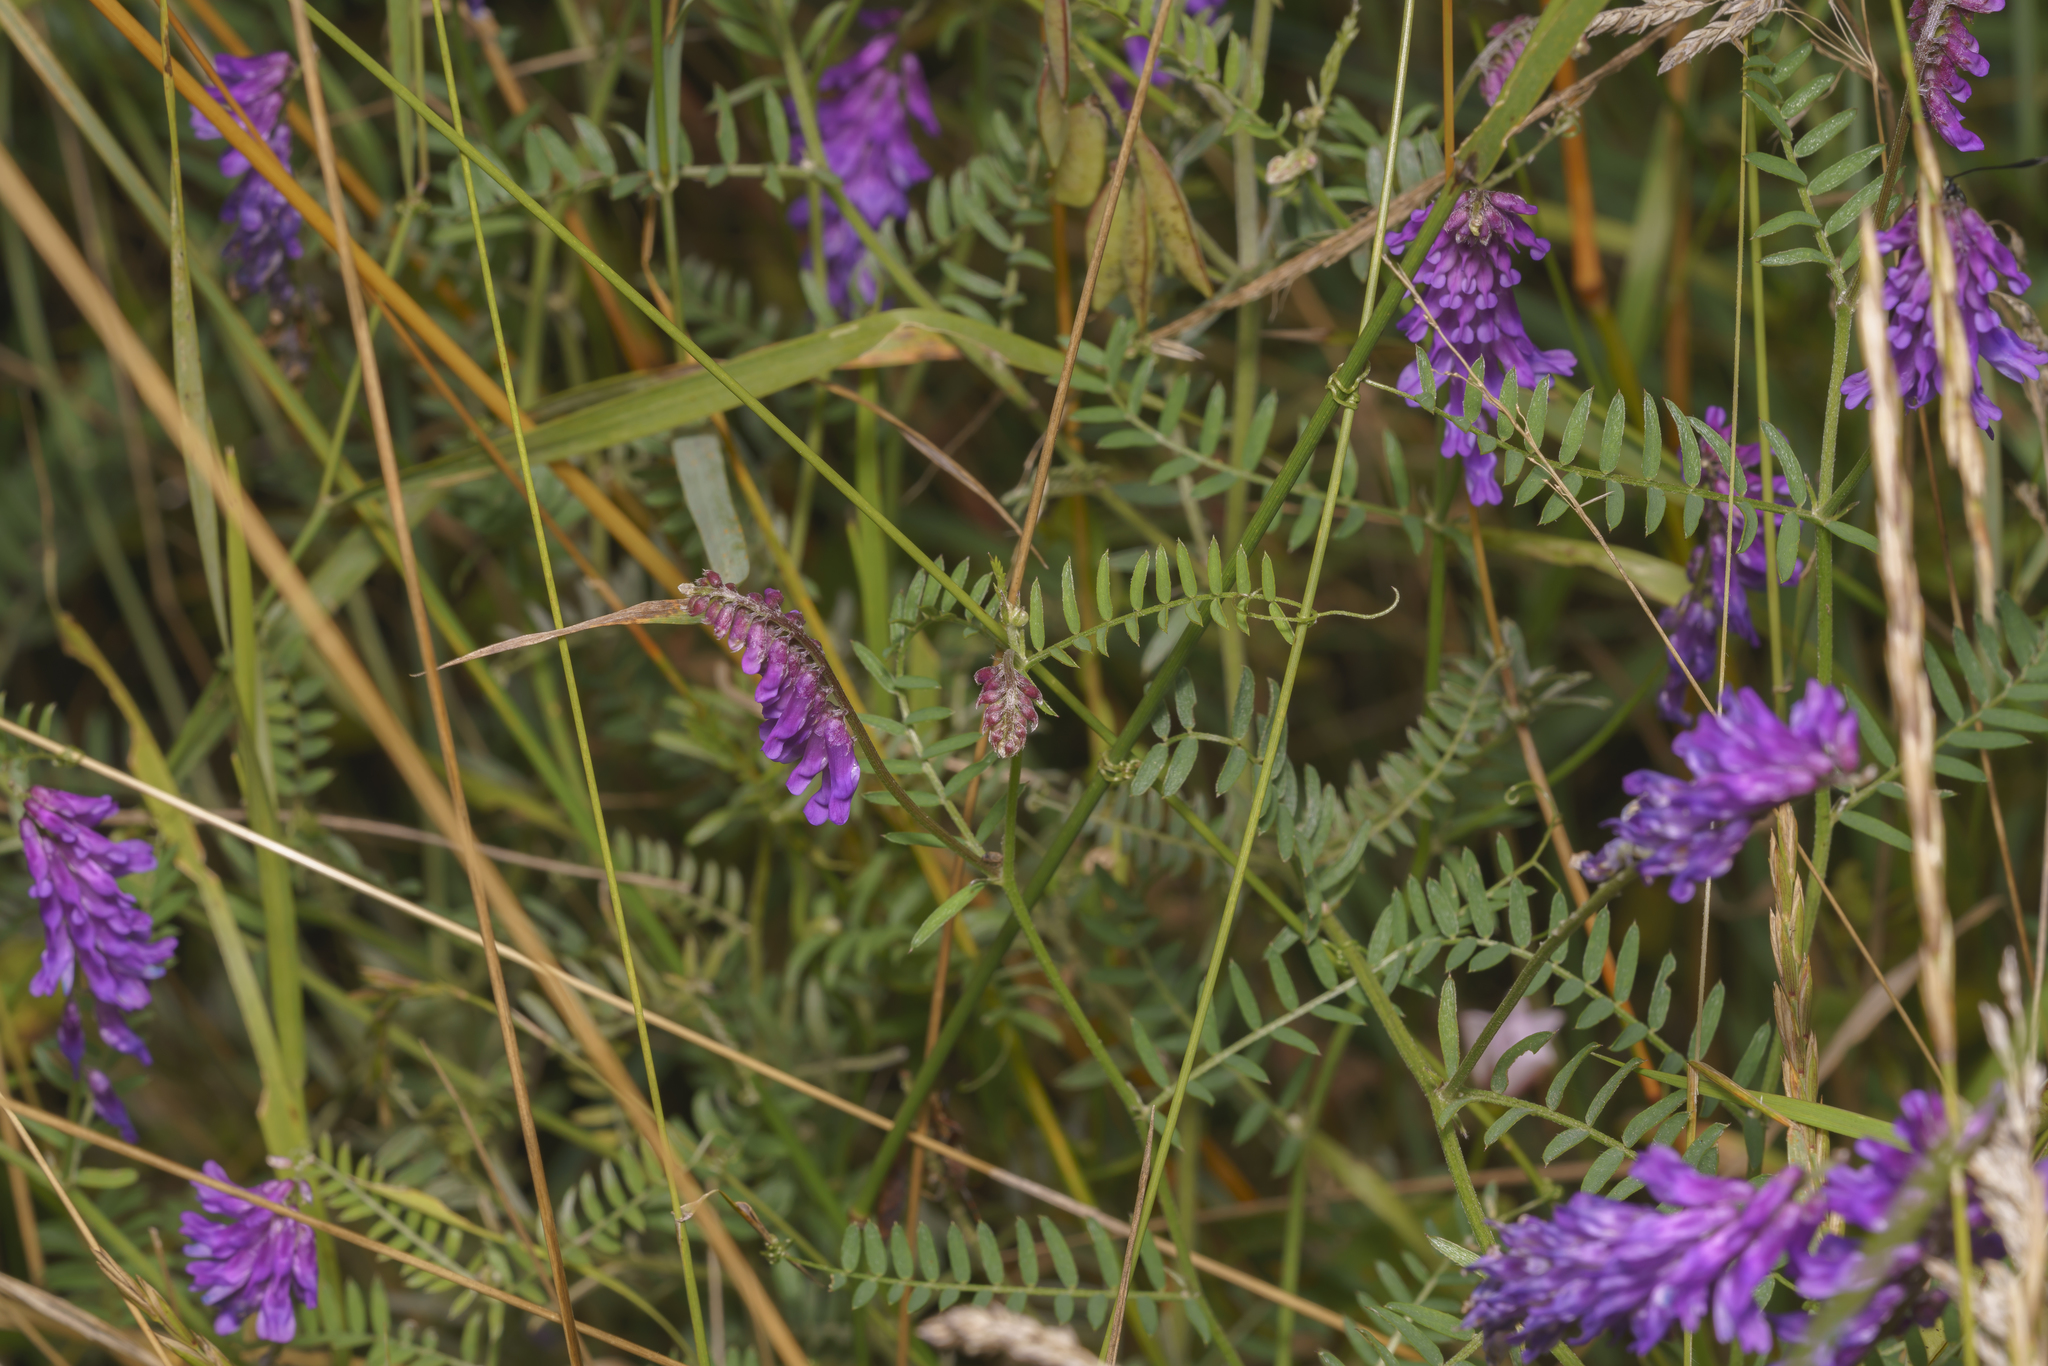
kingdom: Plantae
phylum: Tracheophyta
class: Magnoliopsida
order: Fabales
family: Fabaceae
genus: Vicia
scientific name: Vicia cracca
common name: Bird vetch
